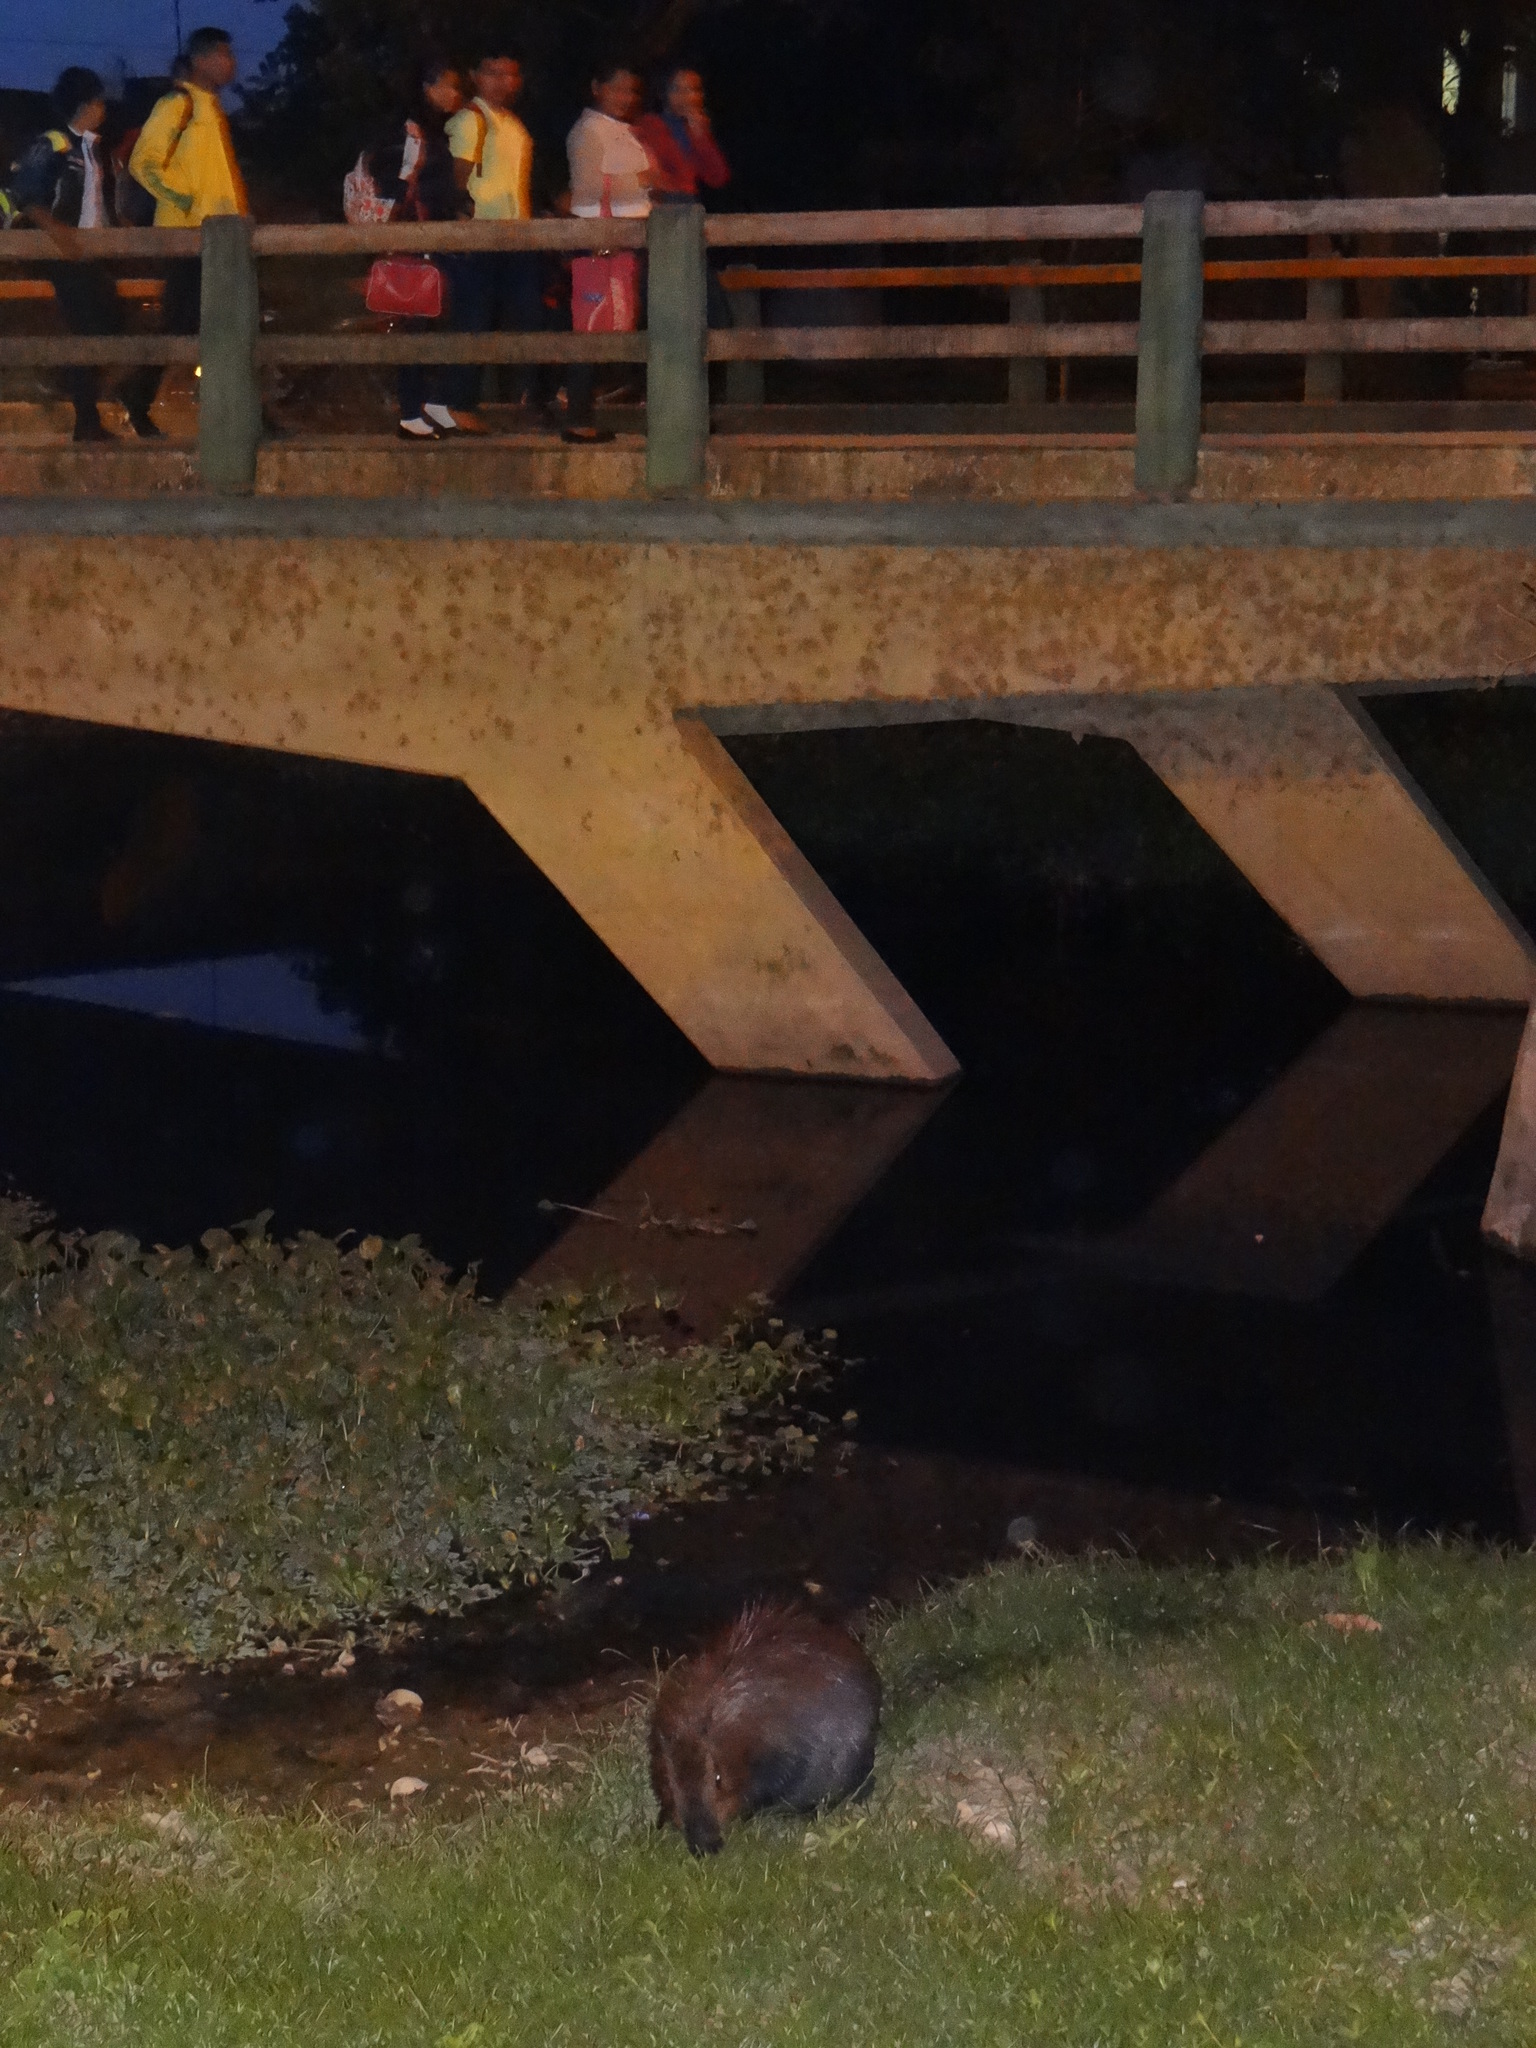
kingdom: Animalia
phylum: Chordata
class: Mammalia
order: Rodentia
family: Caviidae
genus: Hydrochoerus
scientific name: Hydrochoerus hydrochaeris
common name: Capybara
